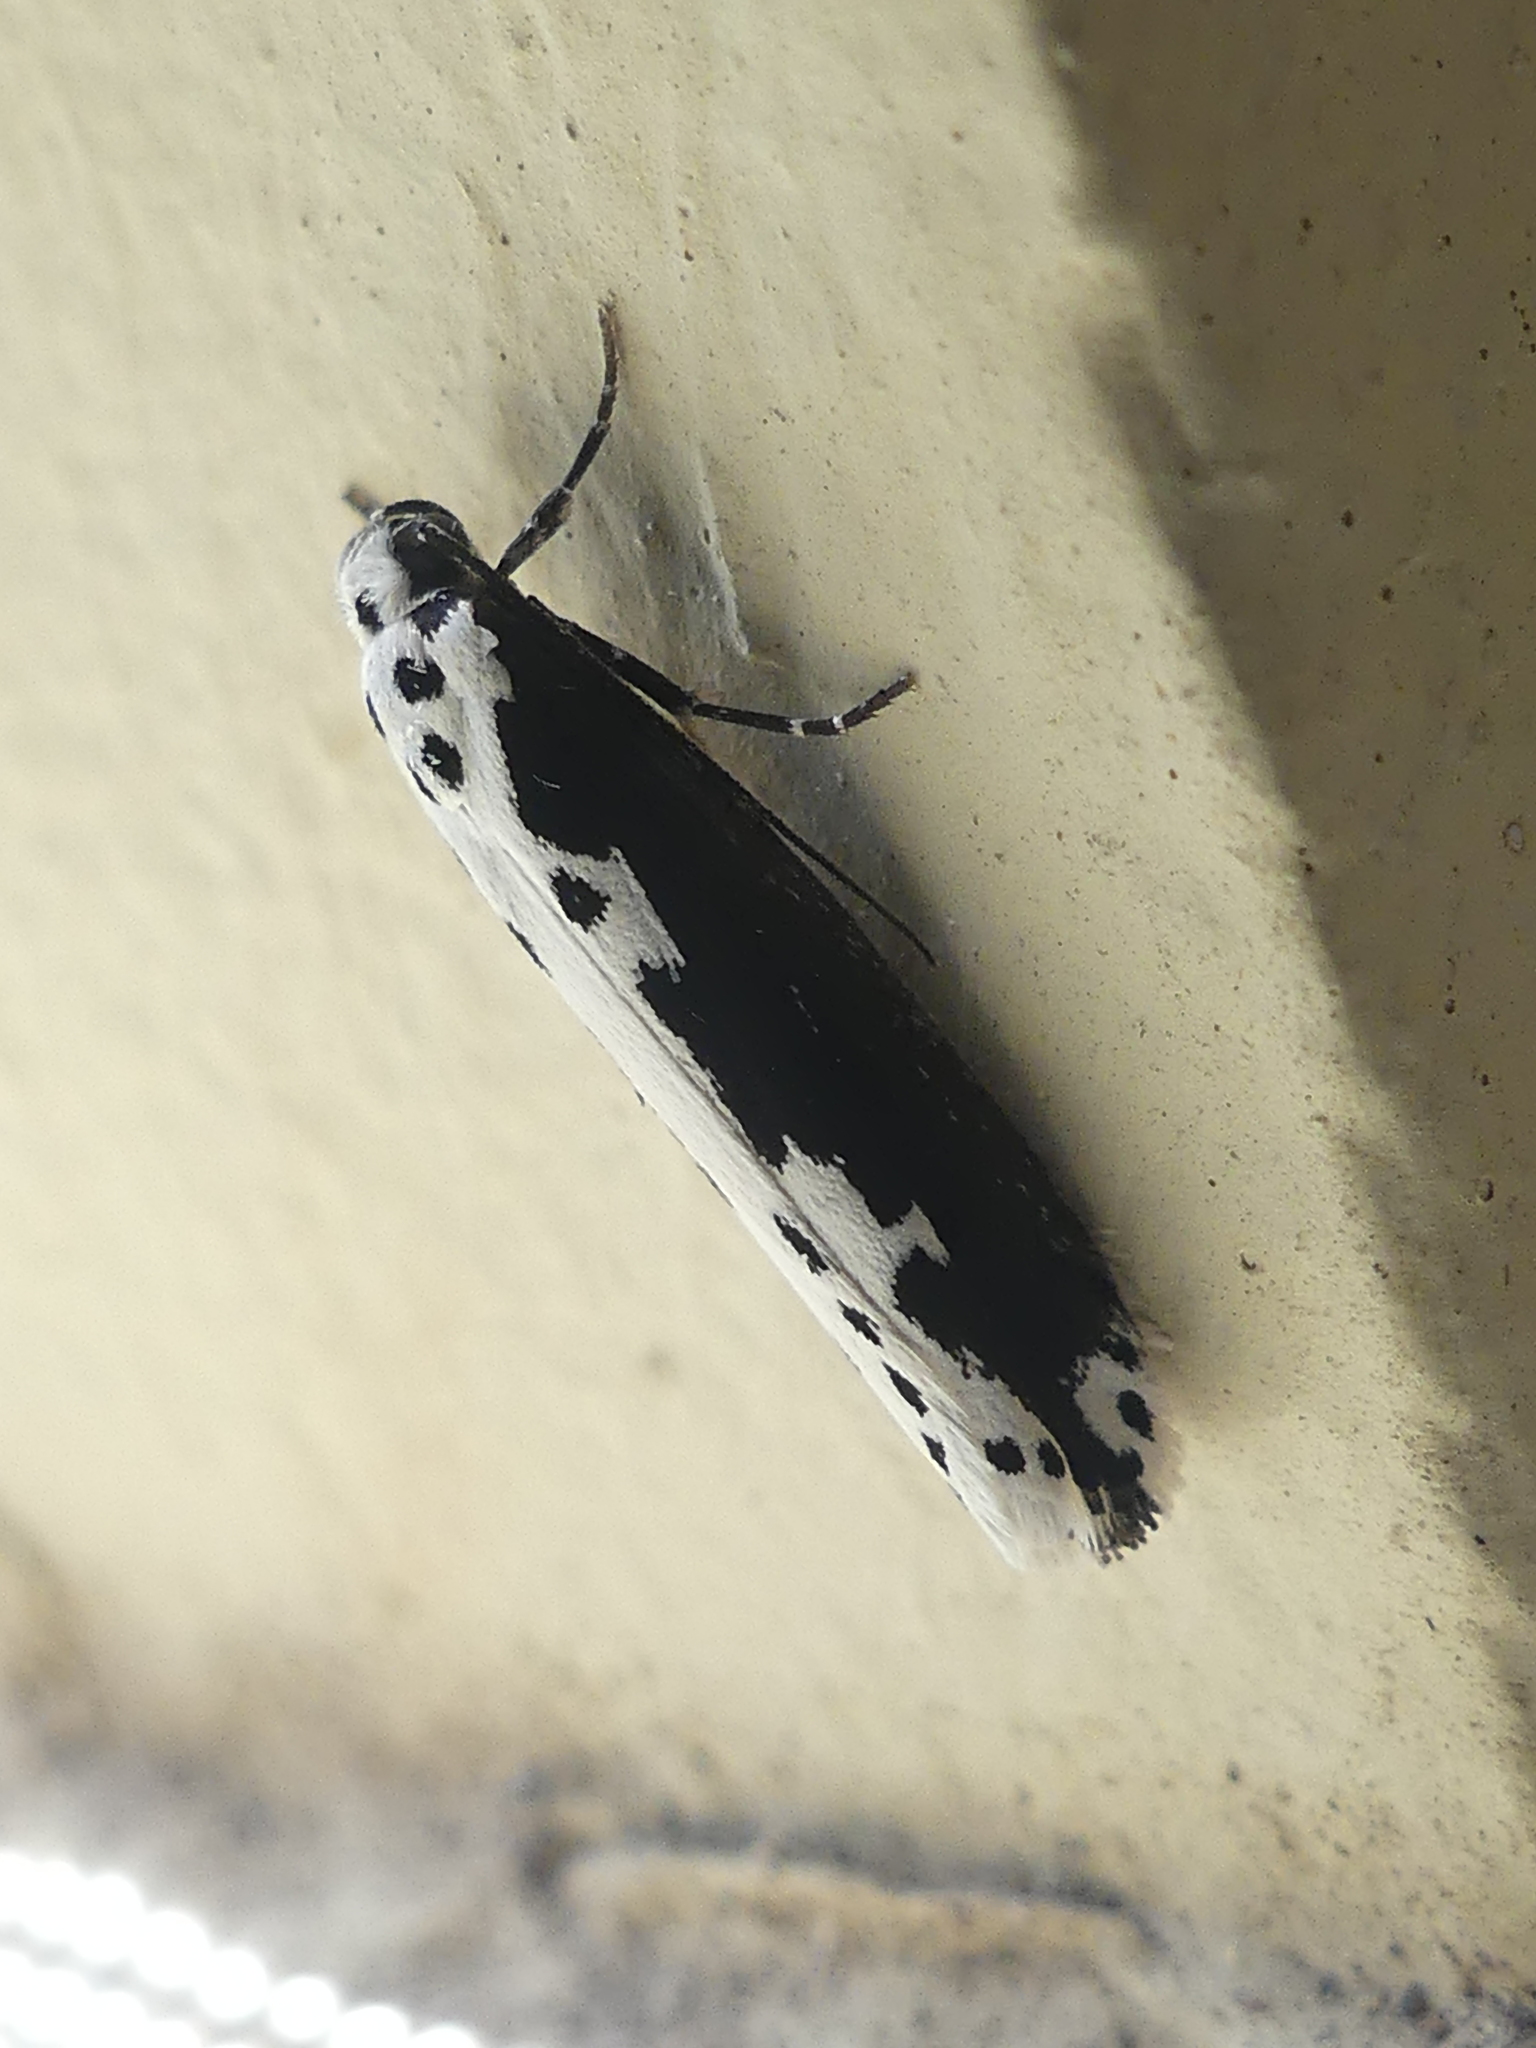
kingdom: Animalia
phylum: Arthropoda
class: Insecta
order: Lepidoptera
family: Ethmiidae
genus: Ethmia
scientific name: Ethmia semilugens
